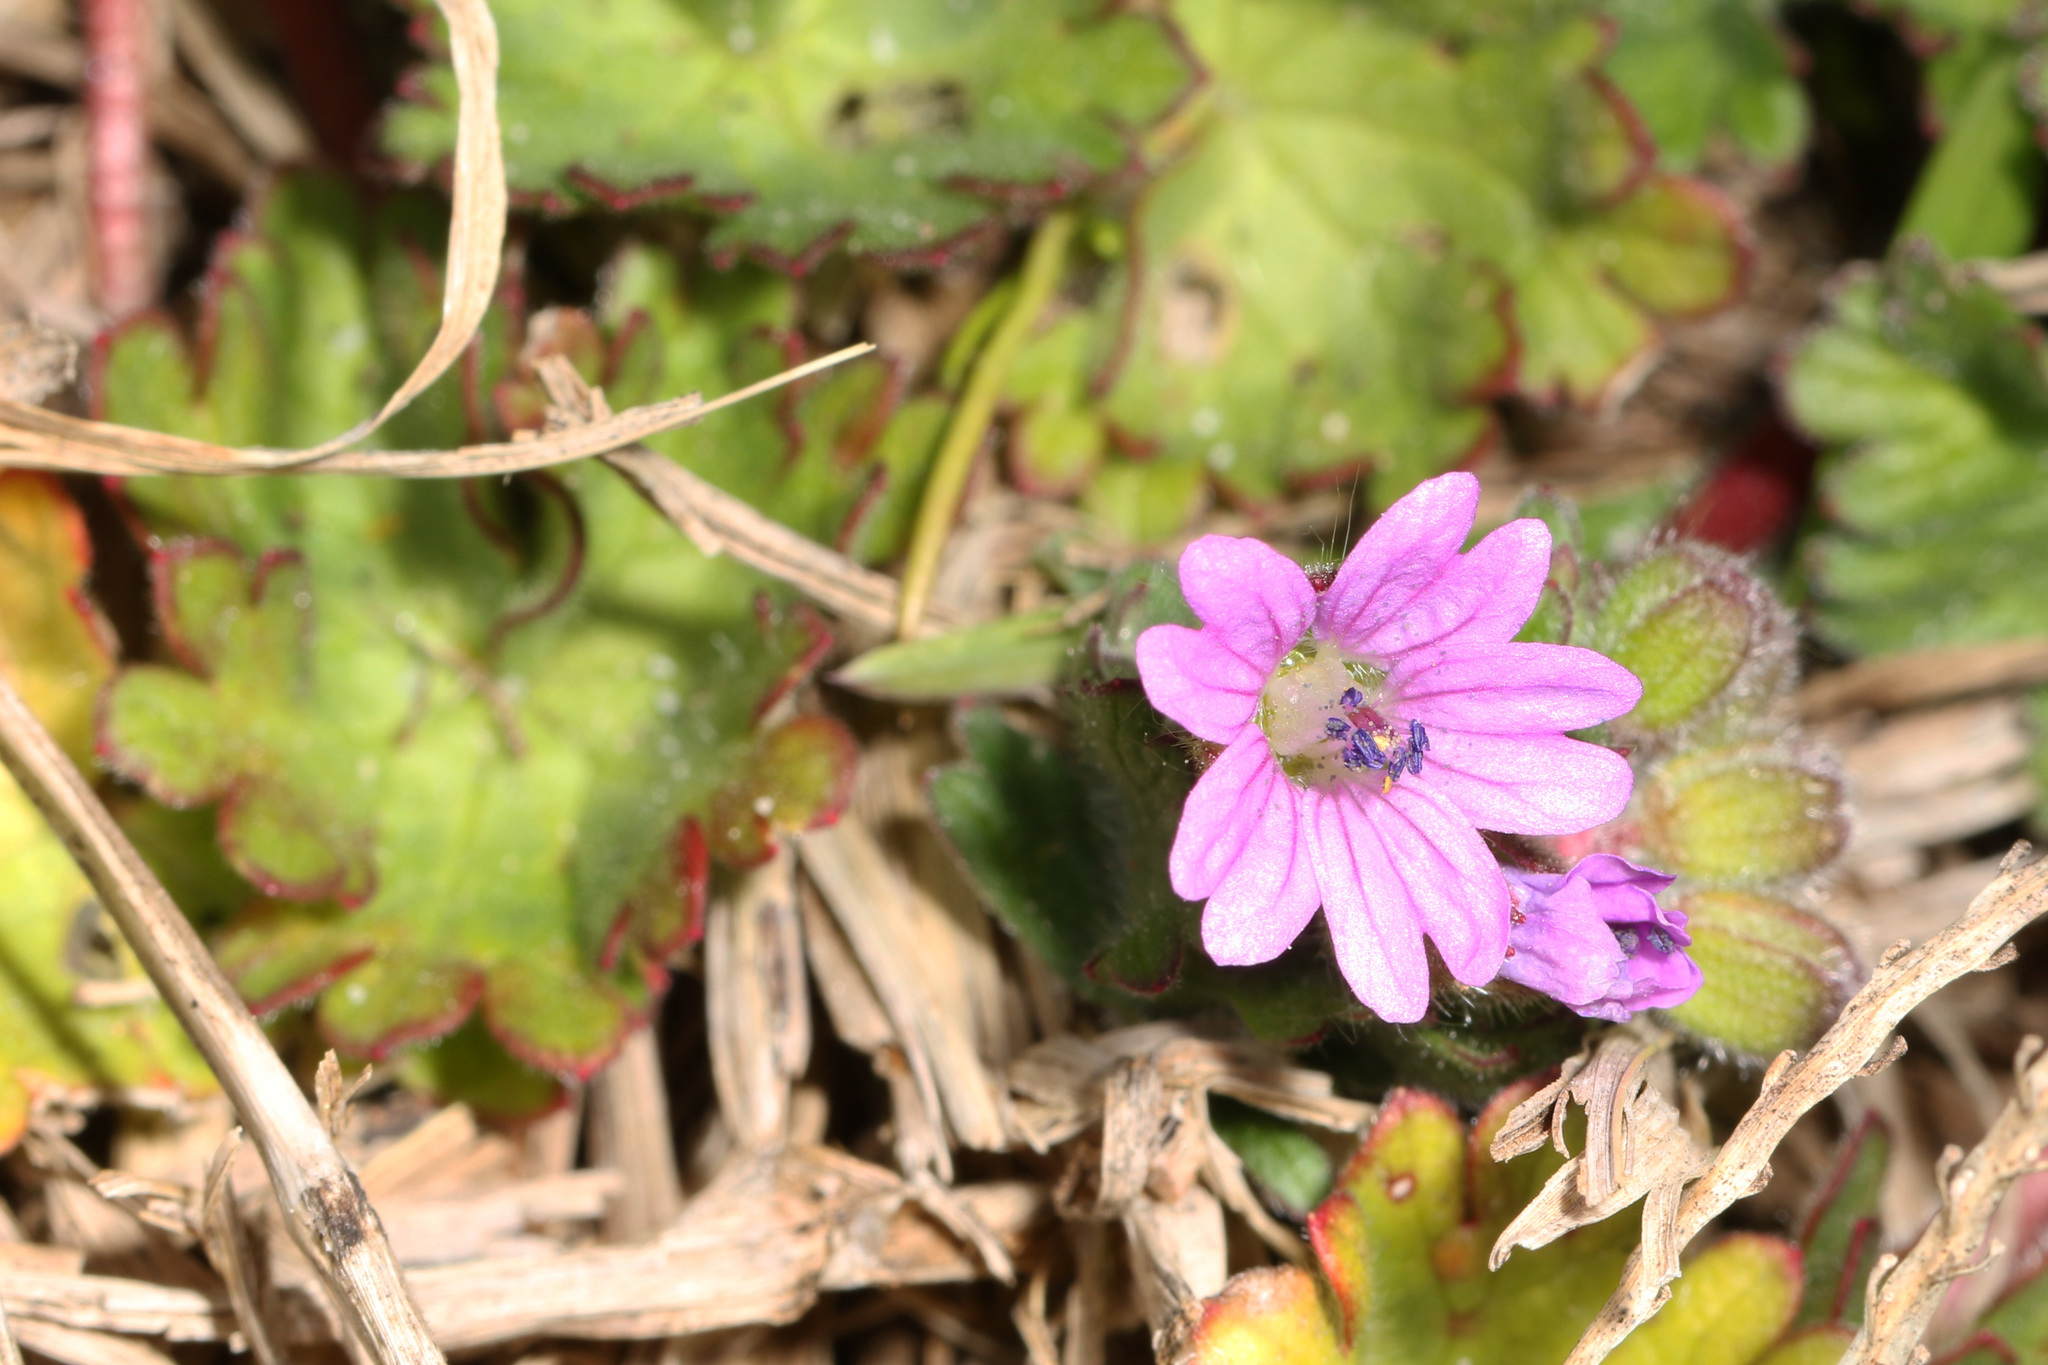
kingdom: Plantae
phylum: Tracheophyta
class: Magnoliopsida
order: Geraniales
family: Geraniaceae
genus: Geranium
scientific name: Geranium molle
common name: Dove's-foot crane's-bill
